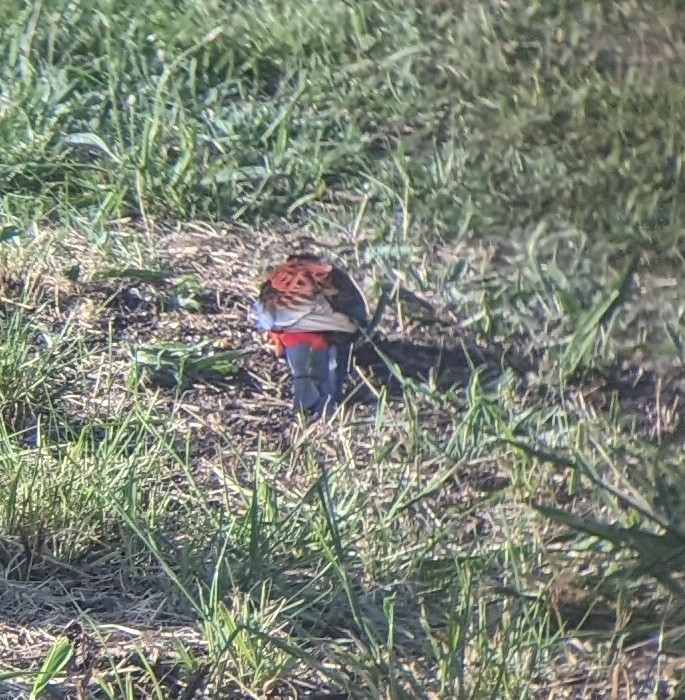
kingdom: Animalia
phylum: Chordata
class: Aves
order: Psittaciformes
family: Psittacidae
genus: Platycercus
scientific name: Platycercus elegans
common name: Crimson rosella
